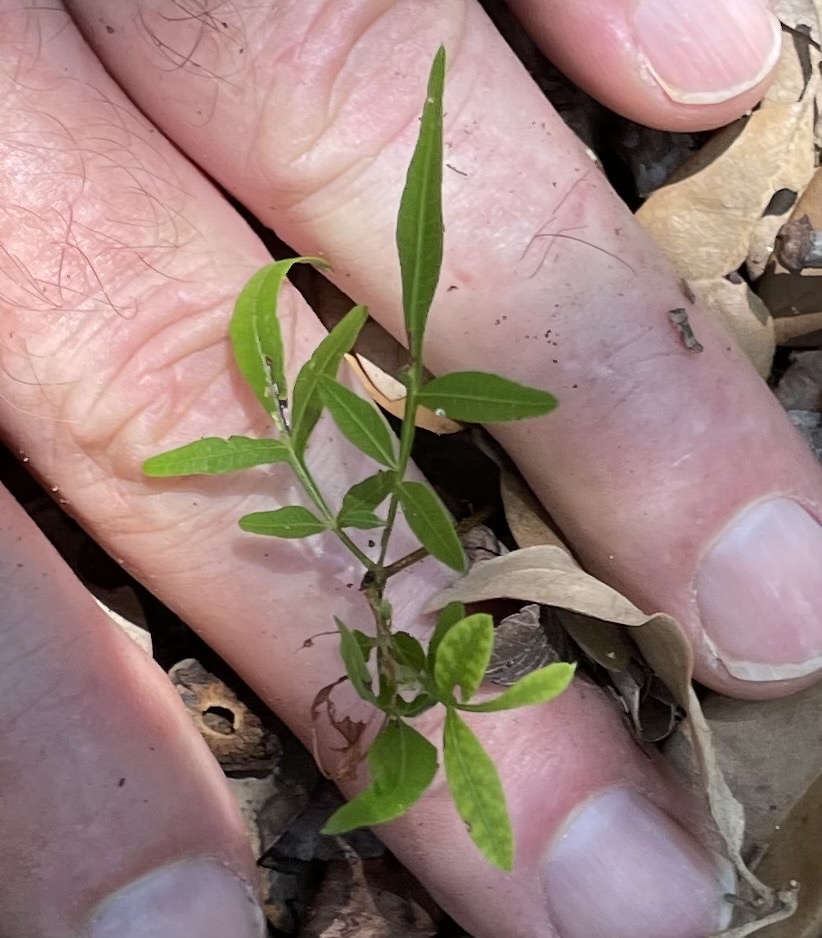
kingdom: Plantae
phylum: Tracheophyta
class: Magnoliopsida
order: Sapindales
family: Anacardiaceae
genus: Pistacia
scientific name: Pistacia chinensis
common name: Chinese pistache
